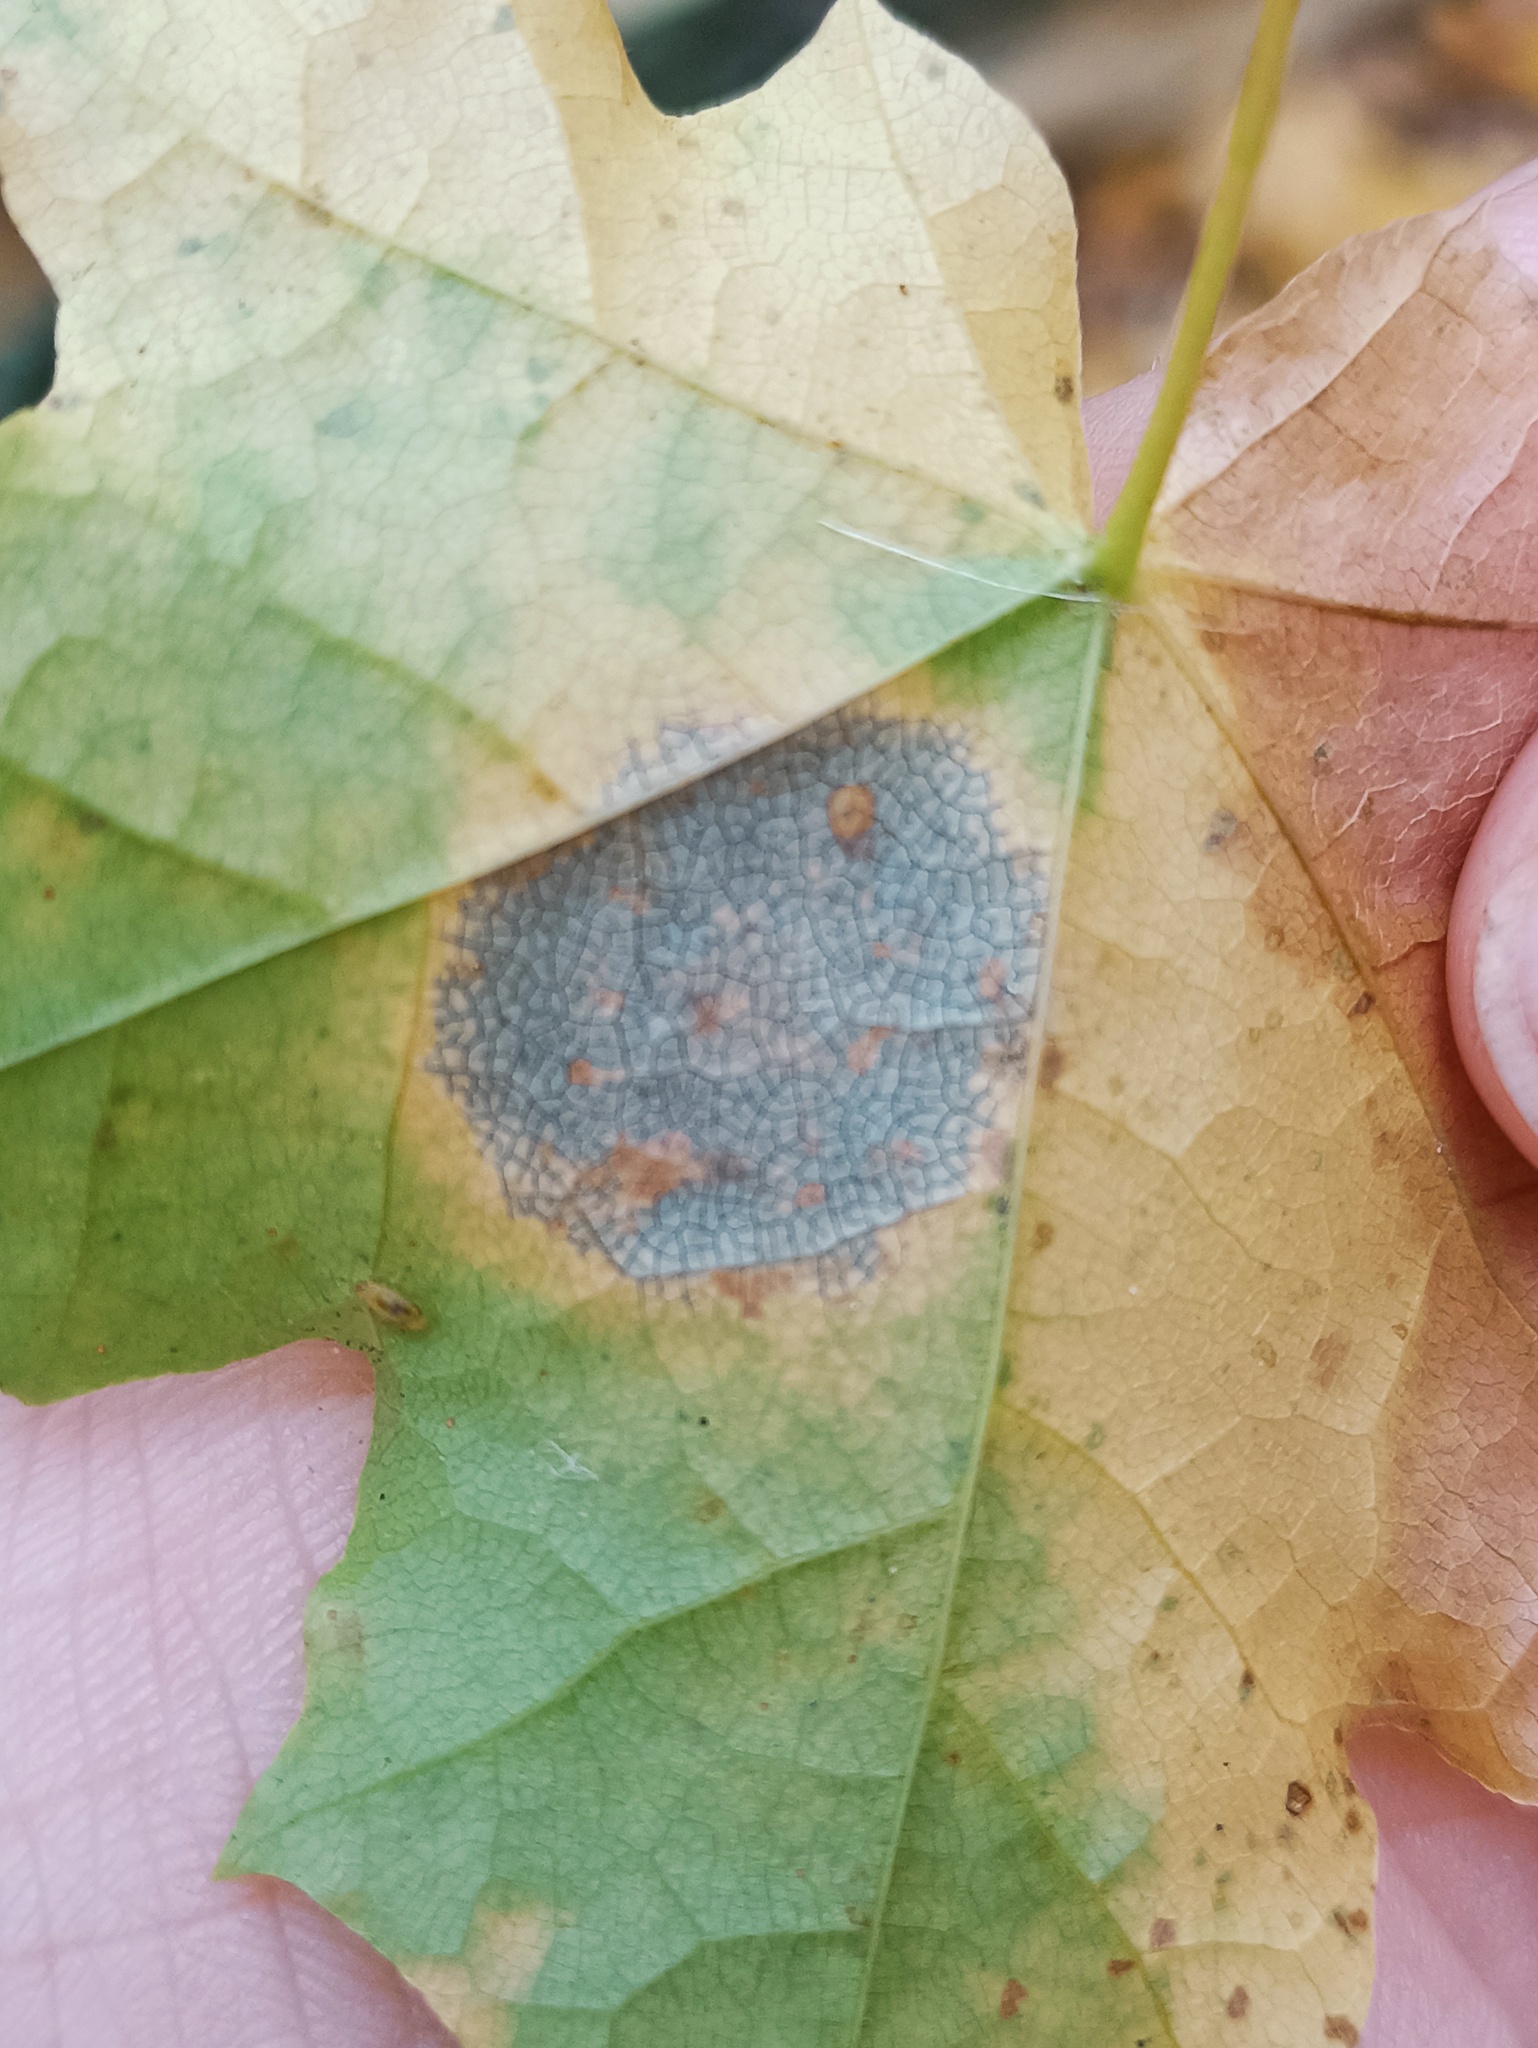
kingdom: Fungi
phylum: Ascomycota
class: Leotiomycetes
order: Rhytismatales
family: Rhytismataceae
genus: Rhytisma
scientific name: Rhytisma acerinum
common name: European tar spot
